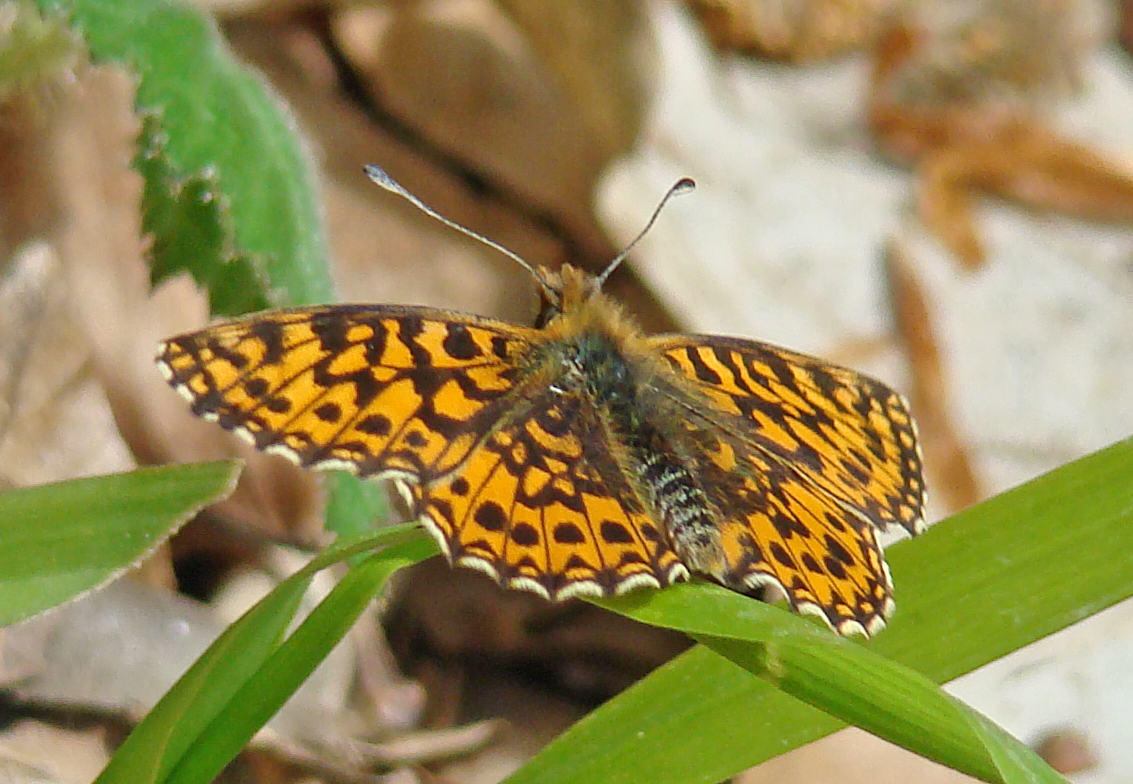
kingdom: Animalia
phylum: Arthropoda
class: Insecta
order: Lepidoptera
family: Nymphalidae
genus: Boloria
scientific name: Boloria dia
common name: Weaver's fritillary
